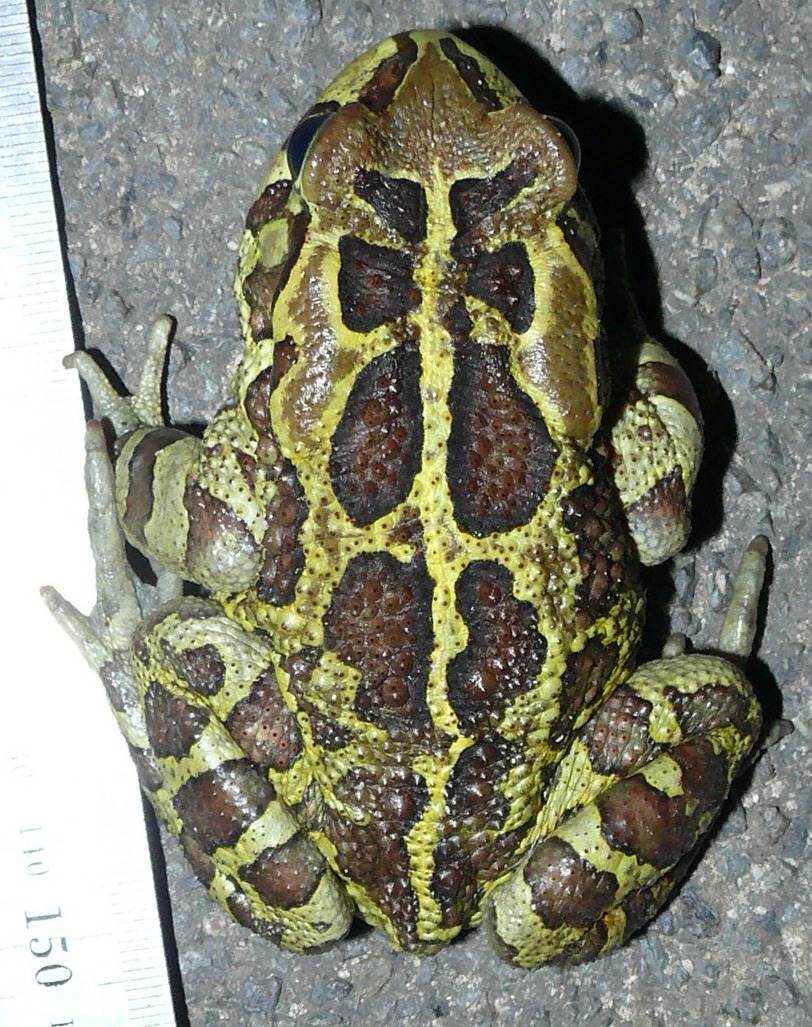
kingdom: Animalia
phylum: Chordata
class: Amphibia
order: Anura
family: Bufonidae
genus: Sclerophrys
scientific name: Sclerophrys pantherina
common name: Panther toad
